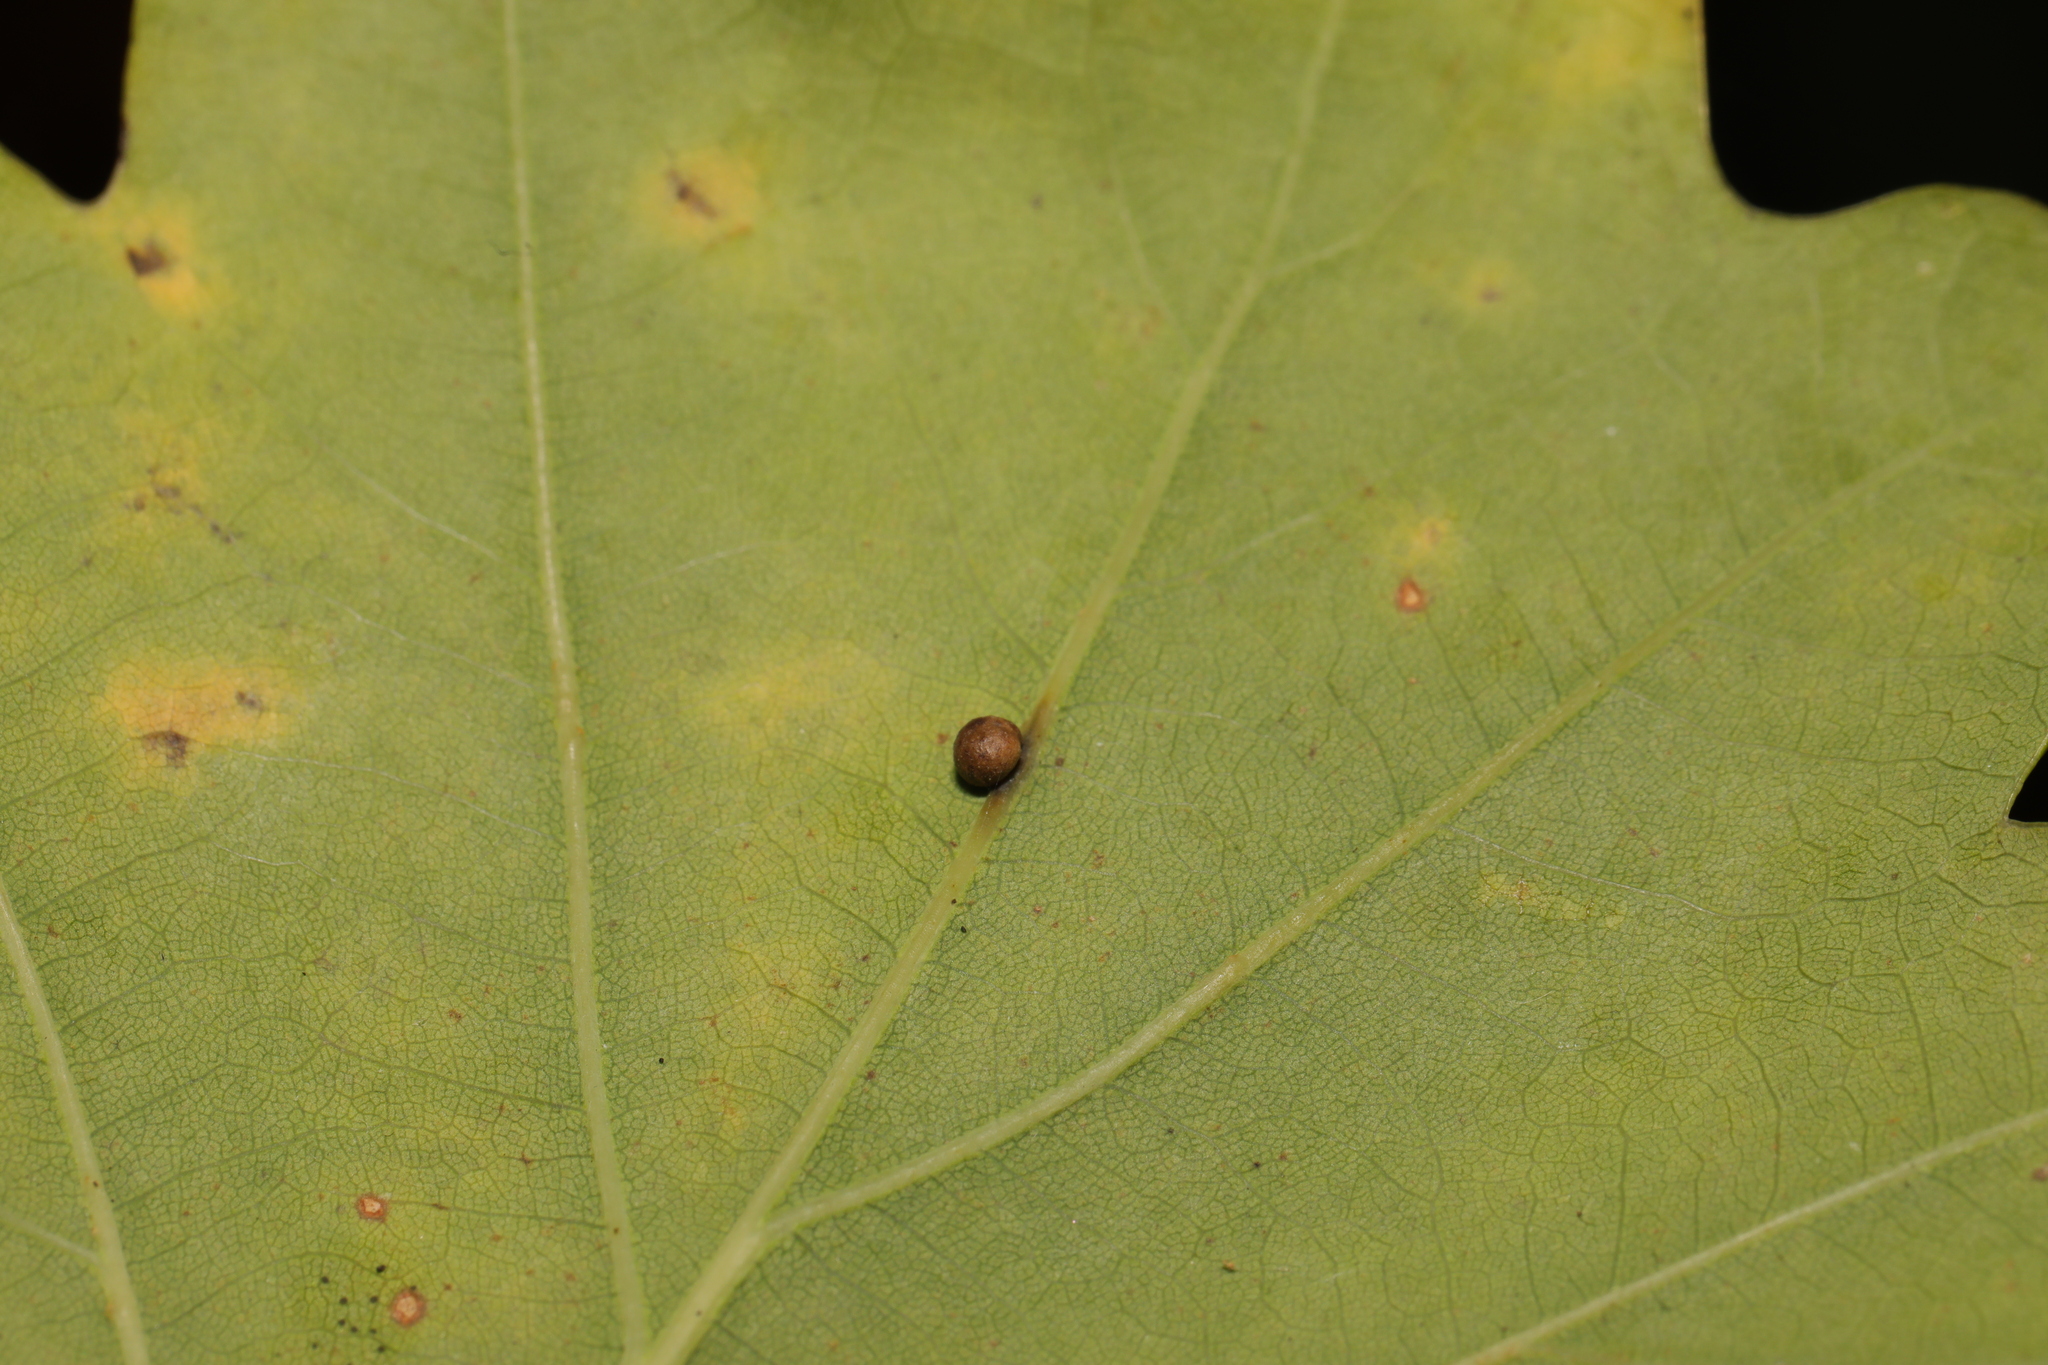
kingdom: Animalia
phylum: Arthropoda
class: Insecta
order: Hymenoptera
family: Cynipidae
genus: Cynips
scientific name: Cynips divisa
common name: Red currant gall
